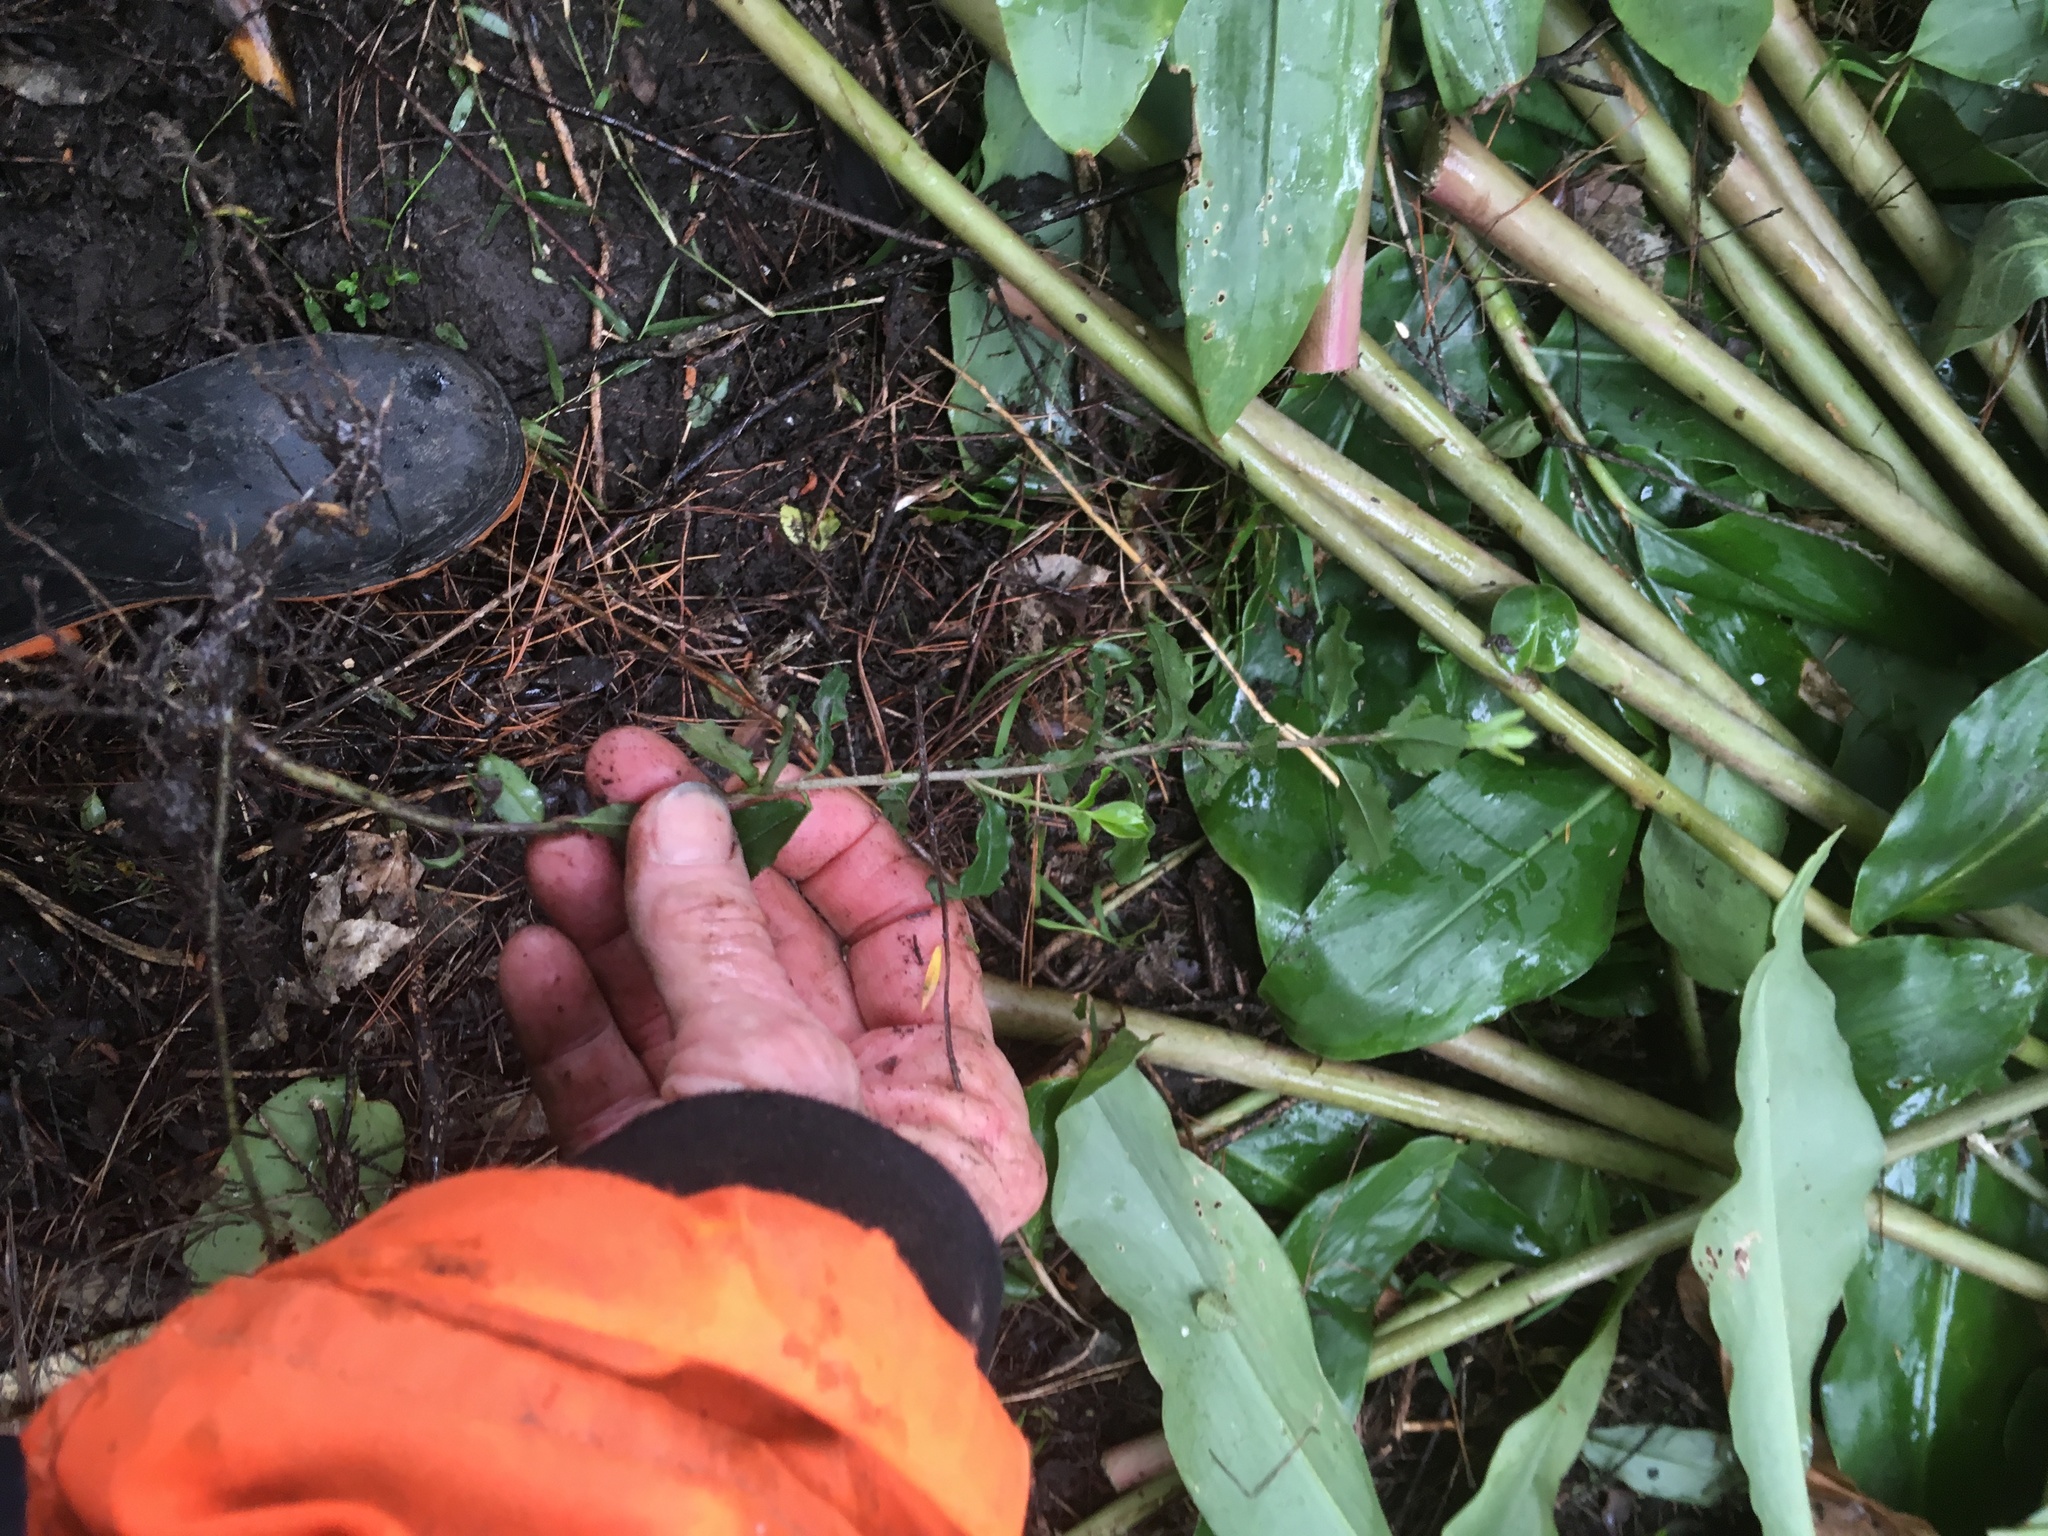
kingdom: Plantae
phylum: Tracheophyta
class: Magnoliopsida
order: Lamiales
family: Oleaceae
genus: Ligustrum
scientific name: Ligustrum sinense
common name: Chinese privet
